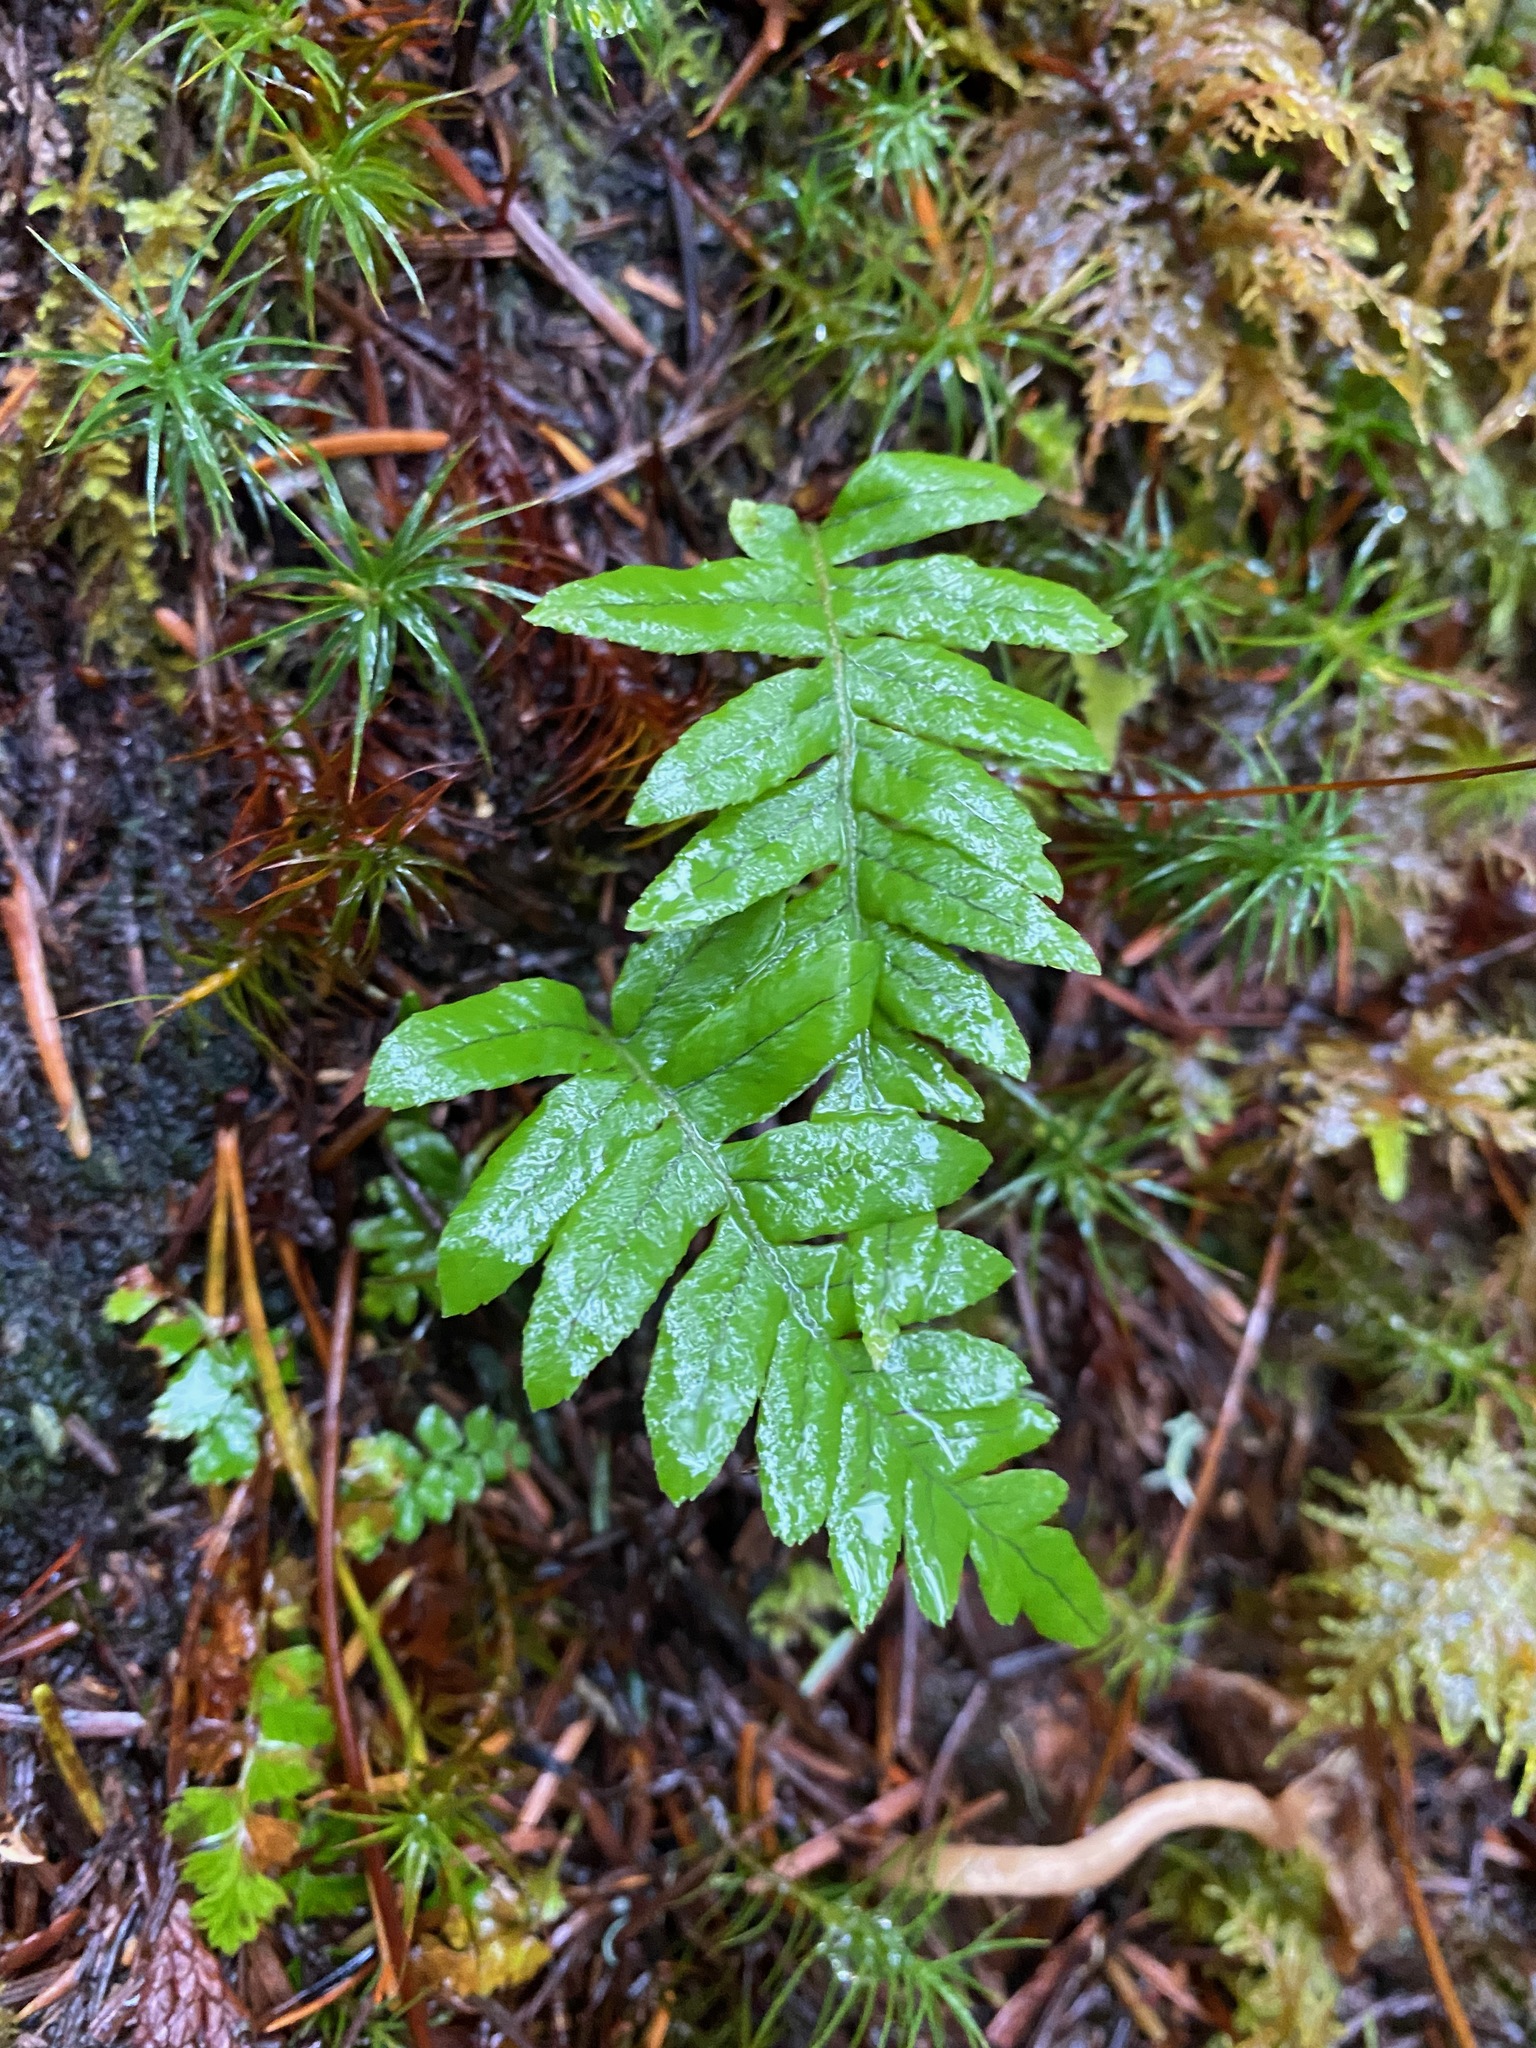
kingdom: Plantae
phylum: Tracheophyta
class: Polypodiopsida
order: Polypodiales
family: Polypodiaceae
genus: Polypodium
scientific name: Polypodium glycyrrhiza
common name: Licorice fern
